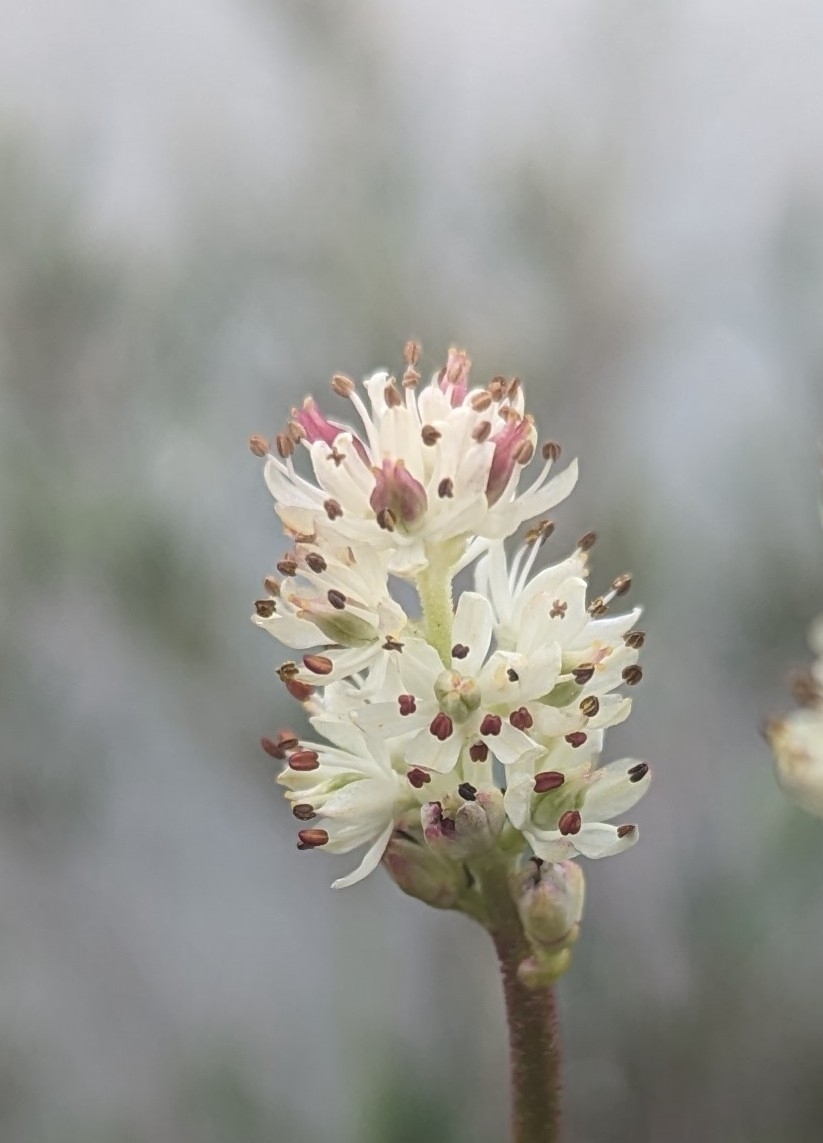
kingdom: Plantae
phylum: Tracheophyta
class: Liliopsida
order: Alismatales
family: Tofieldiaceae
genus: Triantha
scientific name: Triantha glutinosa
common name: Glutinous tofieldia
